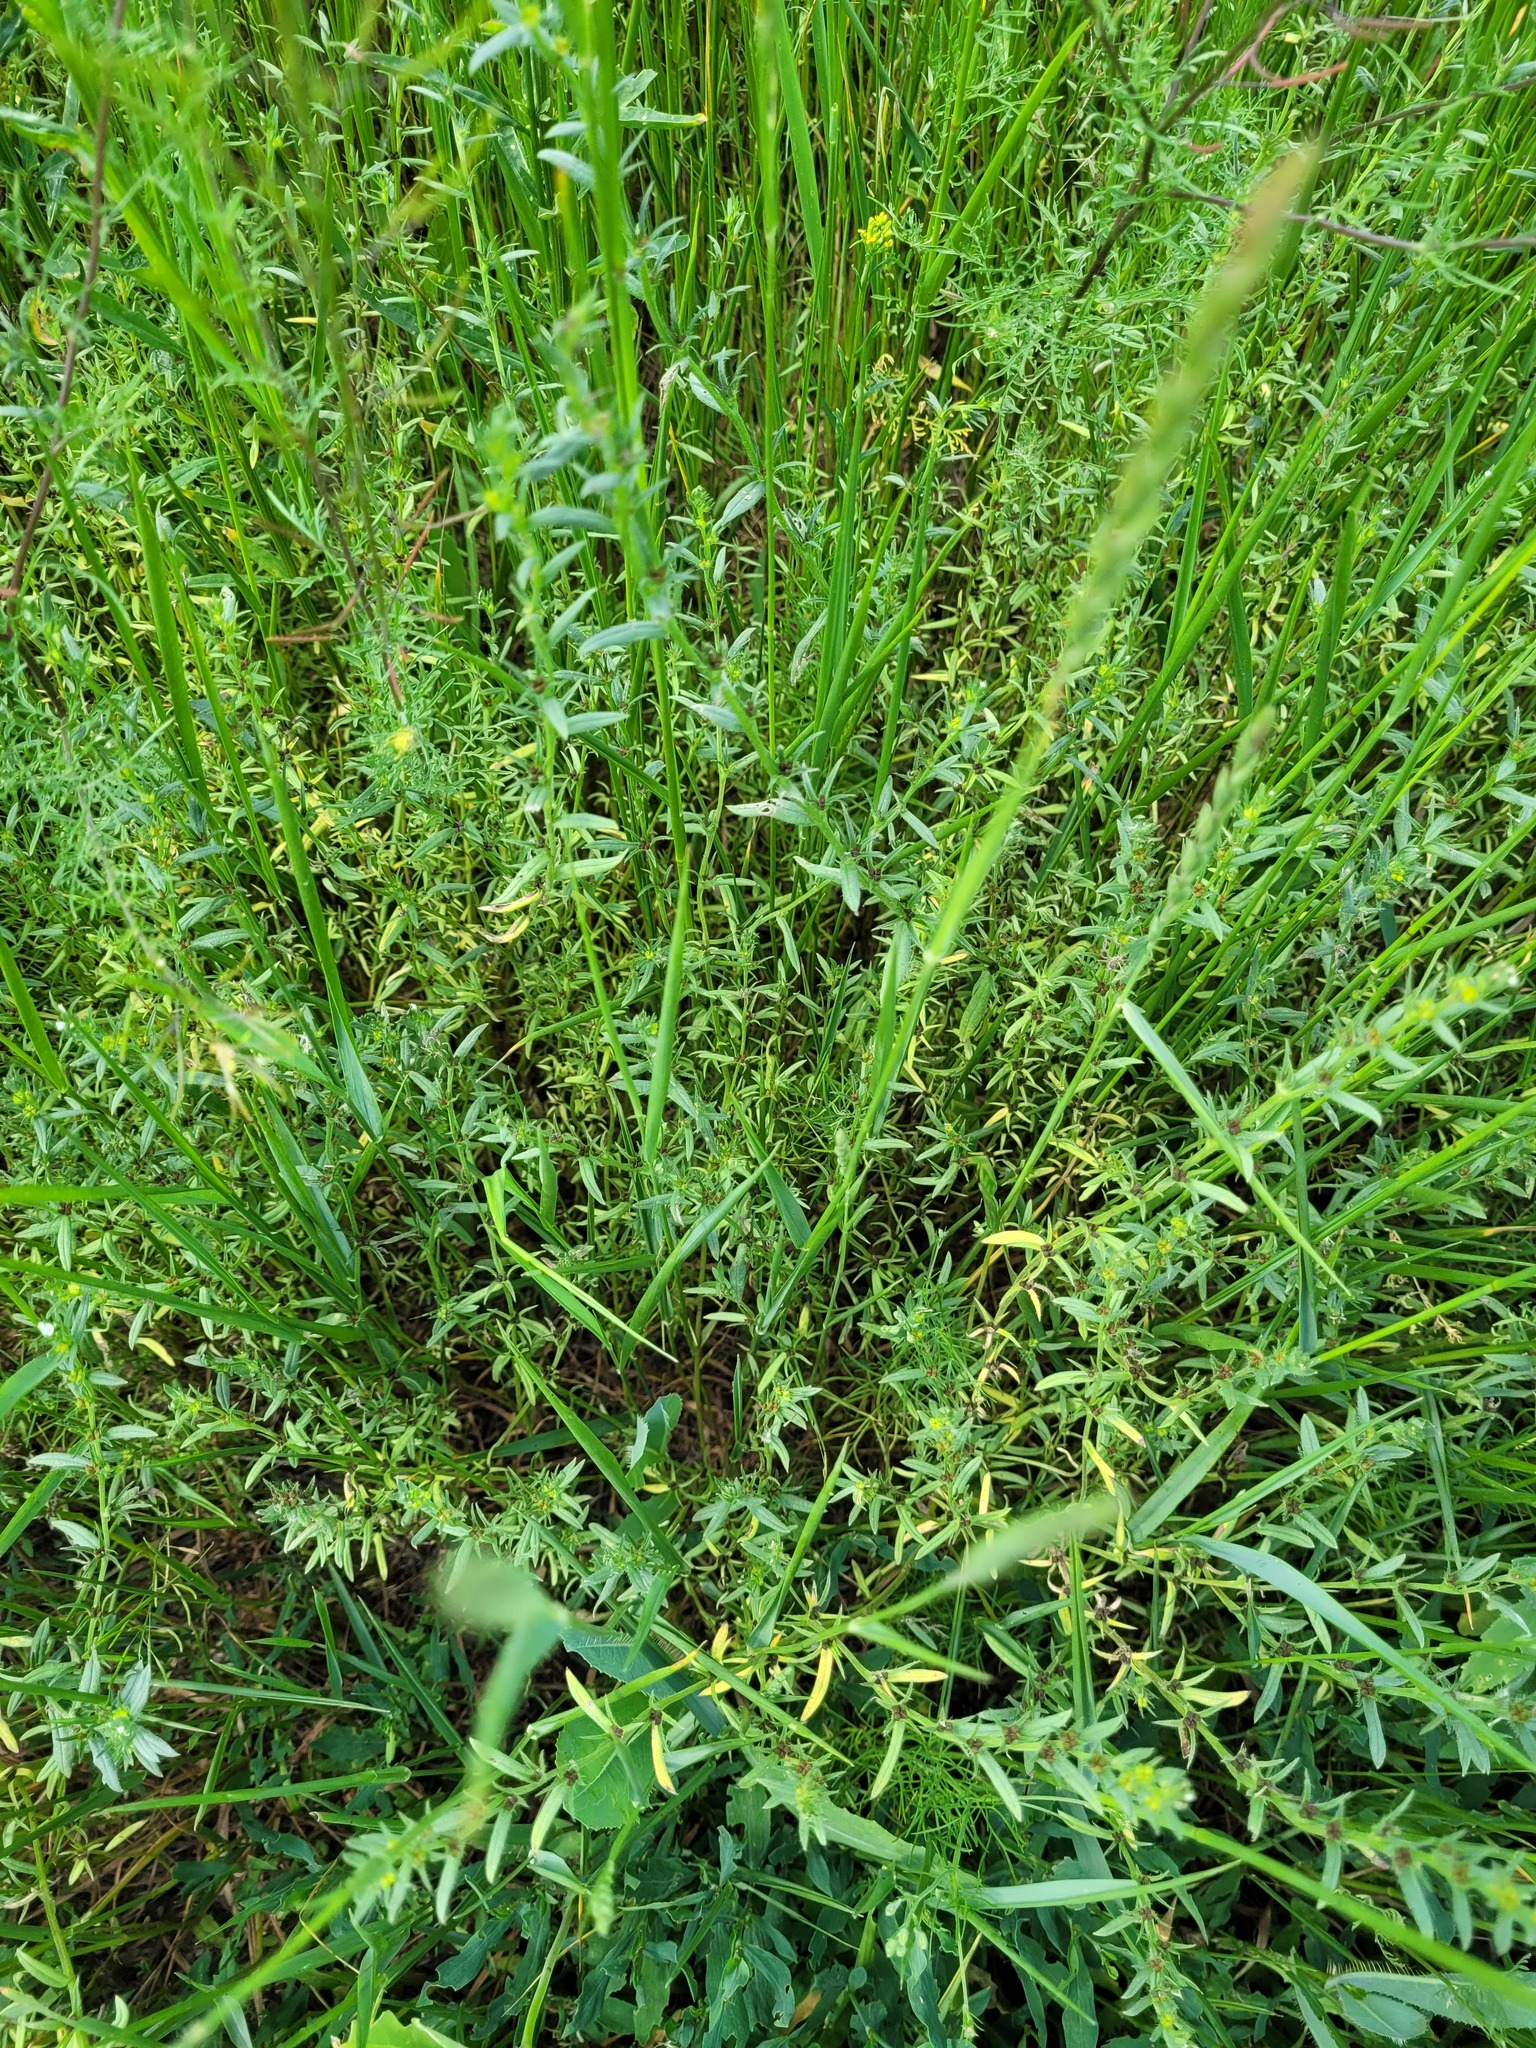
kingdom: Plantae
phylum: Tracheophyta
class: Magnoliopsida
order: Boraginales
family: Boraginaceae
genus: Buglossoides
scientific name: Buglossoides arvensis
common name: Corn gromwell
